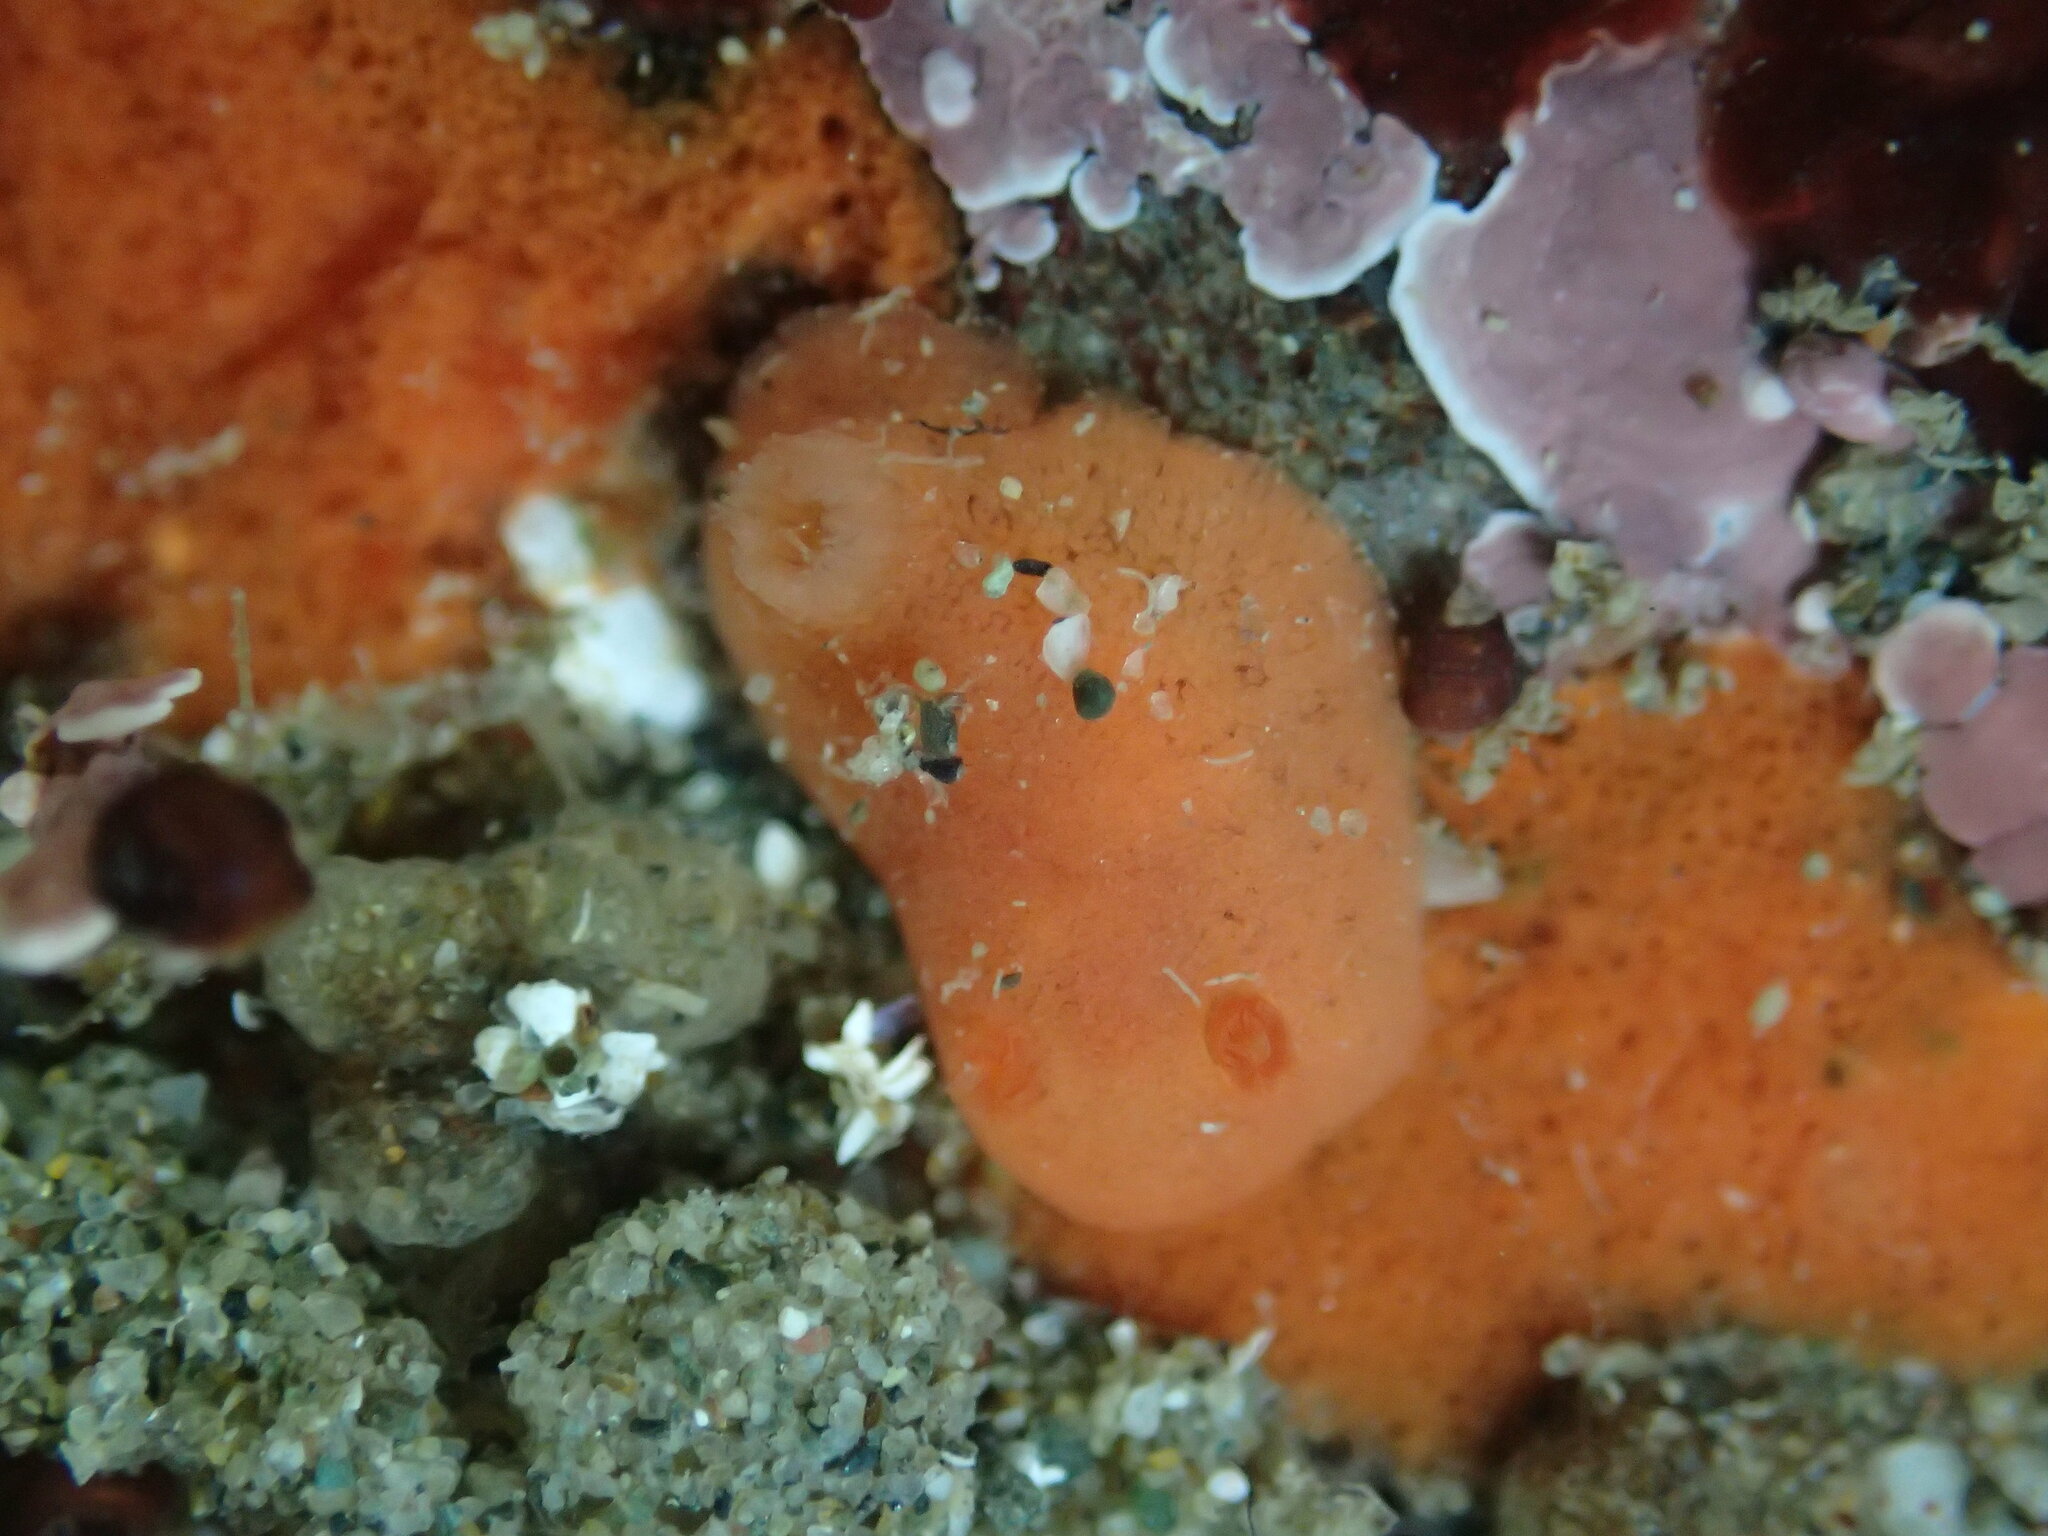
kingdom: Animalia
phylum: Mollusca
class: Gastropoda
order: Nudibranchia
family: Discodorididae
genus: Rostanga
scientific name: Rostanga pulchra
